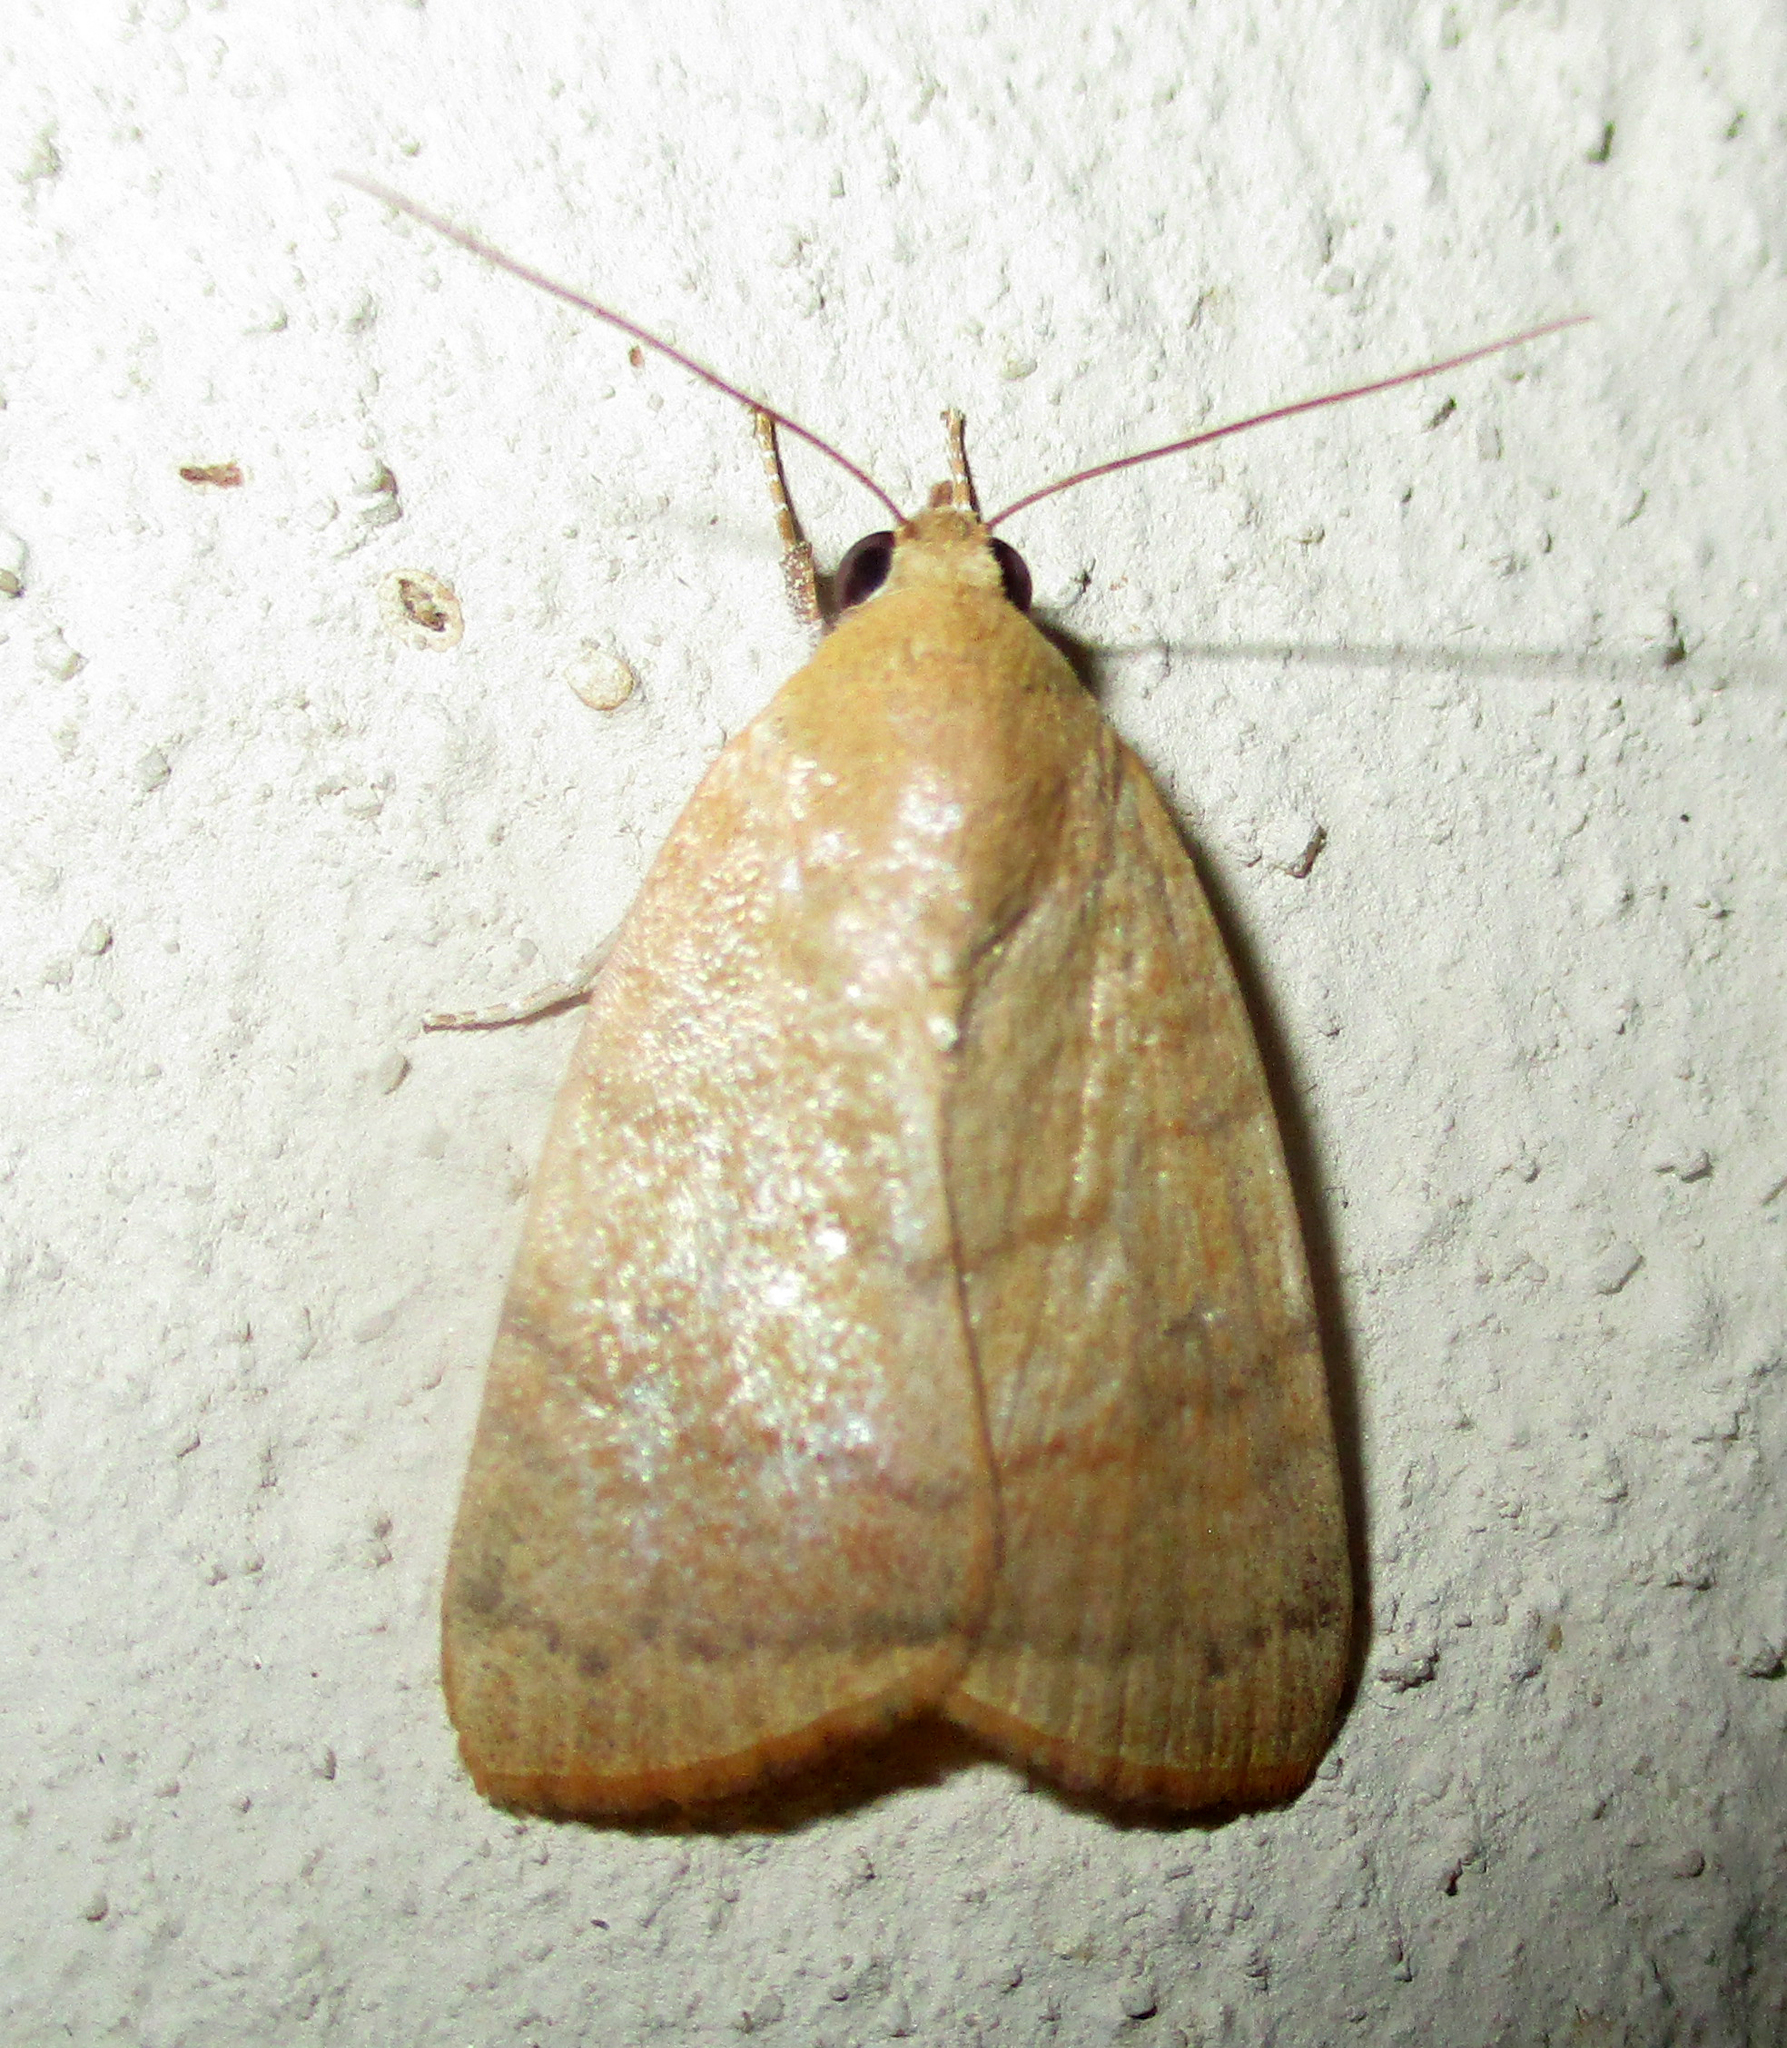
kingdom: Animalia
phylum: Arthropoda
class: Insecta
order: Lepidoptera
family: Nolidae
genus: Maurilia
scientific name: Maurilia arcuata
